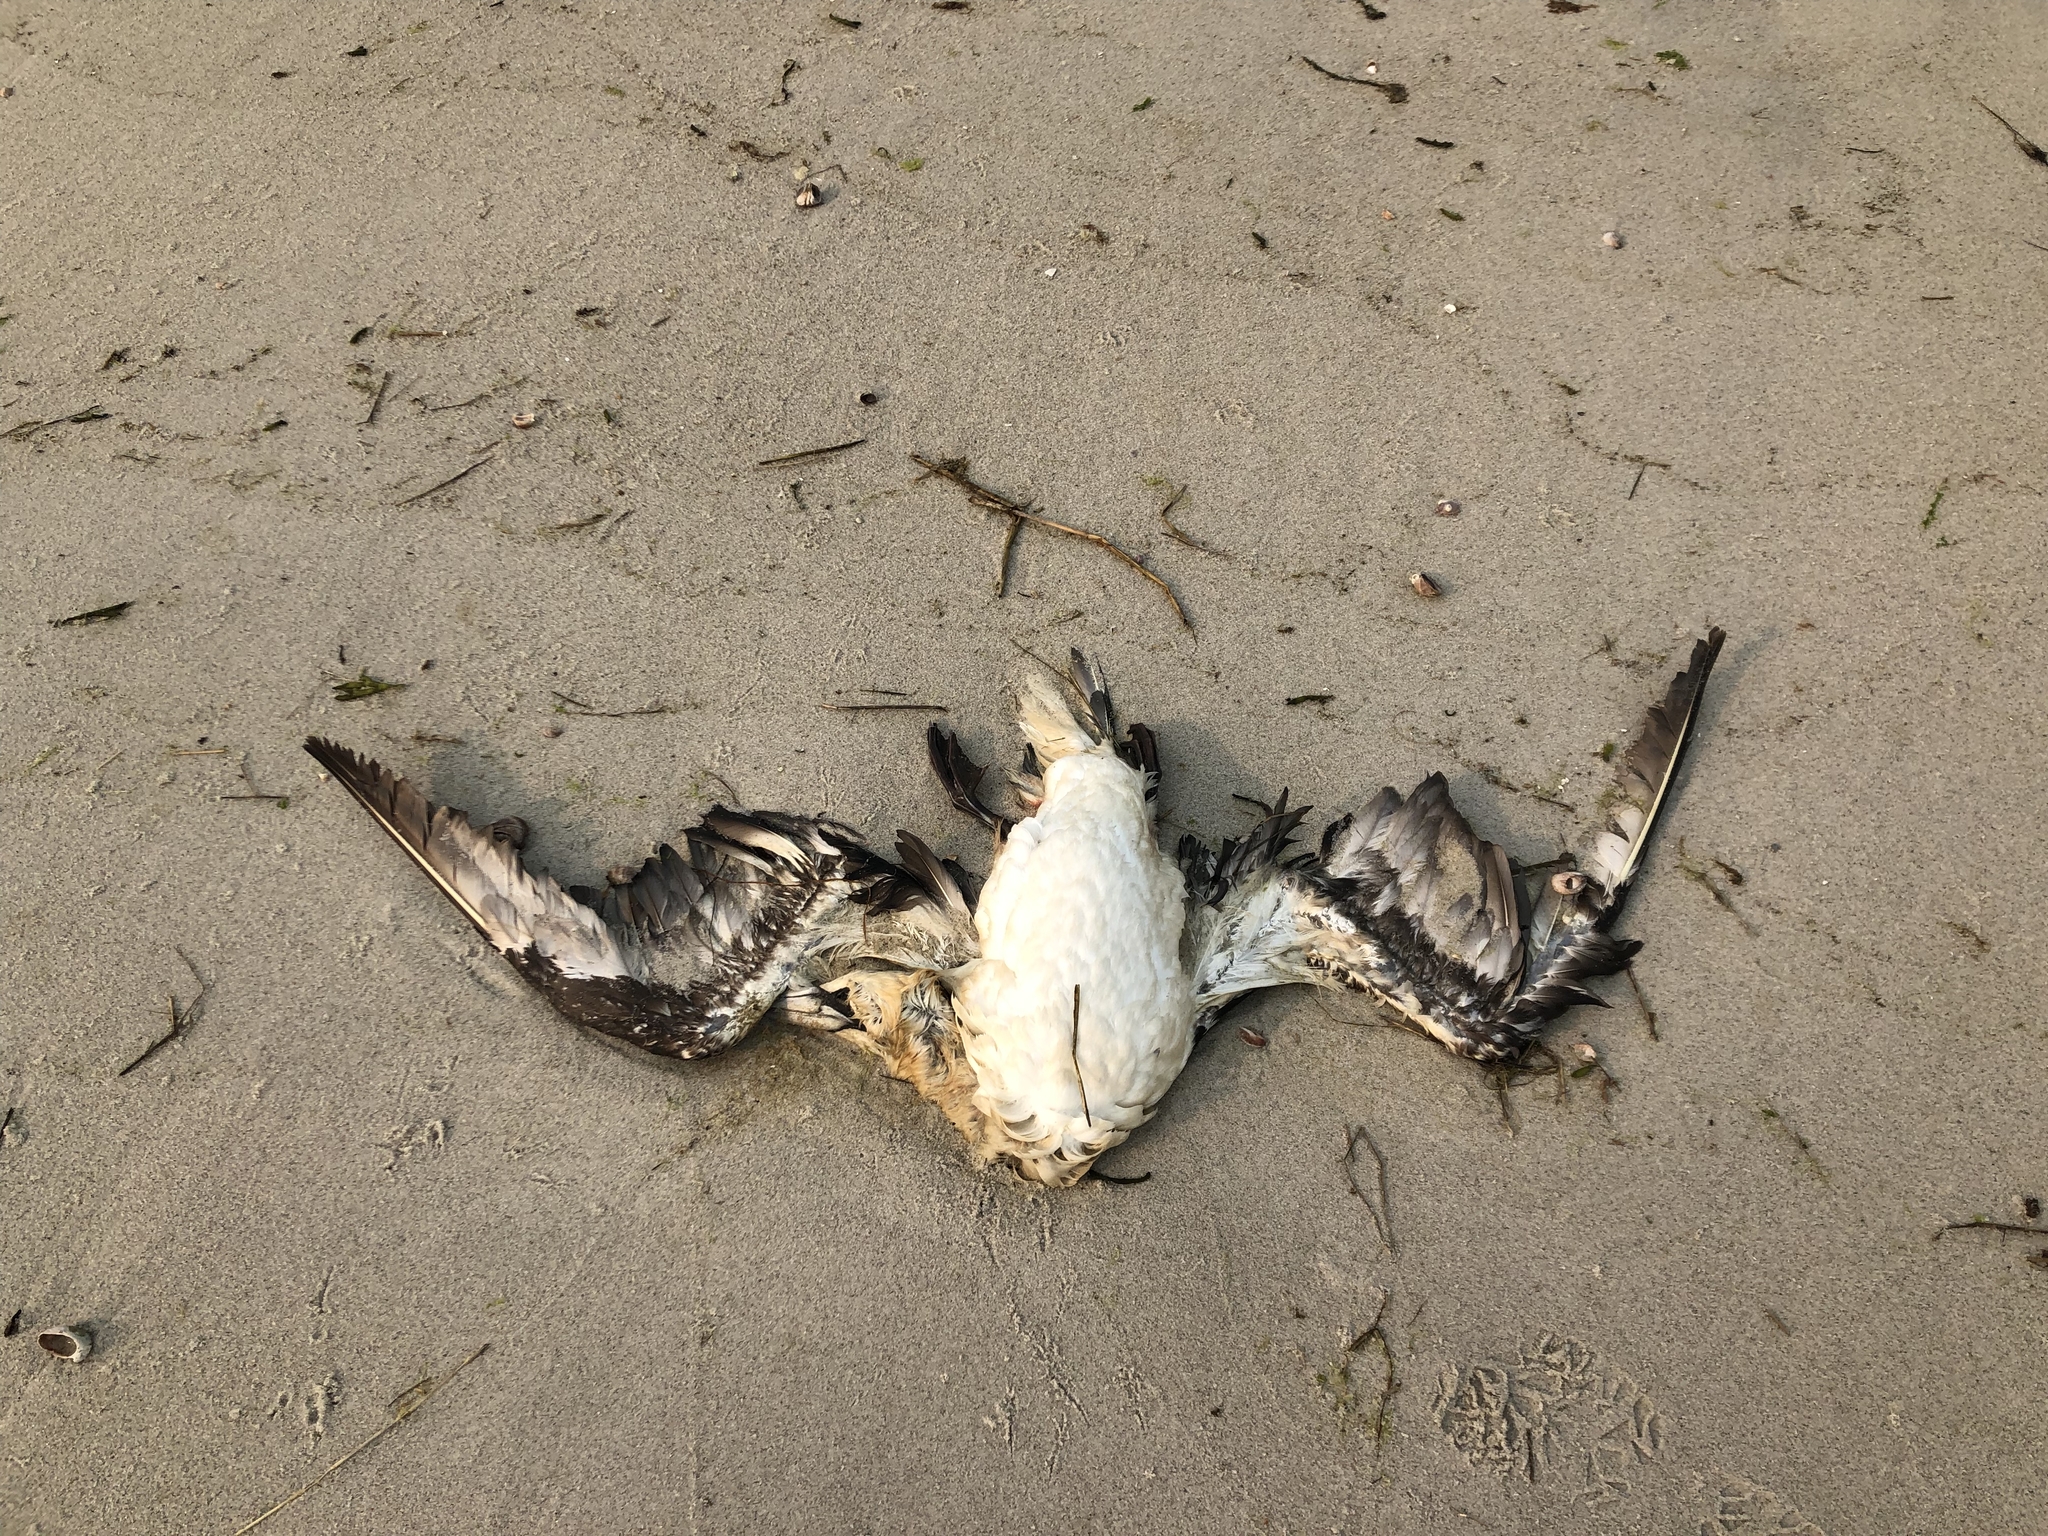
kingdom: Animalia
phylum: Chordata
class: Aves
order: Suliformes
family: Sulidae
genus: Morus
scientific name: Morus bassanus
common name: Northern gannet
